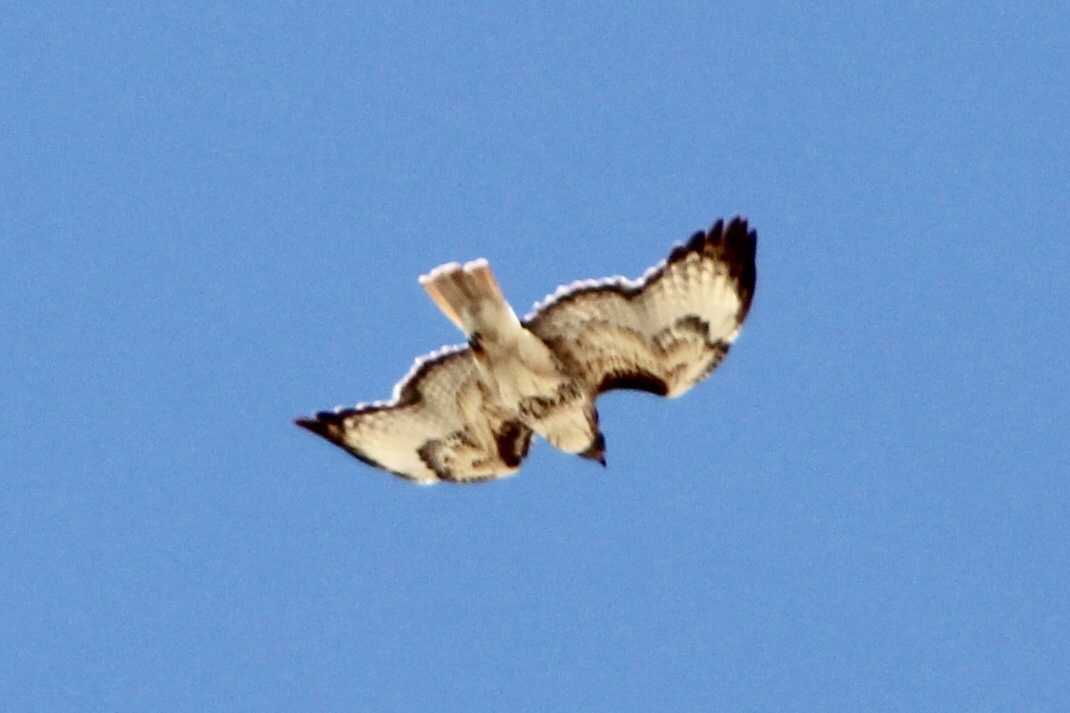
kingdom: Animalia
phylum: Chordata
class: Aves
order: Accipitriformes
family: Accipitridae
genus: Buteo
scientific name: Buteo jamaicensis
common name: Red-tailed hawk
